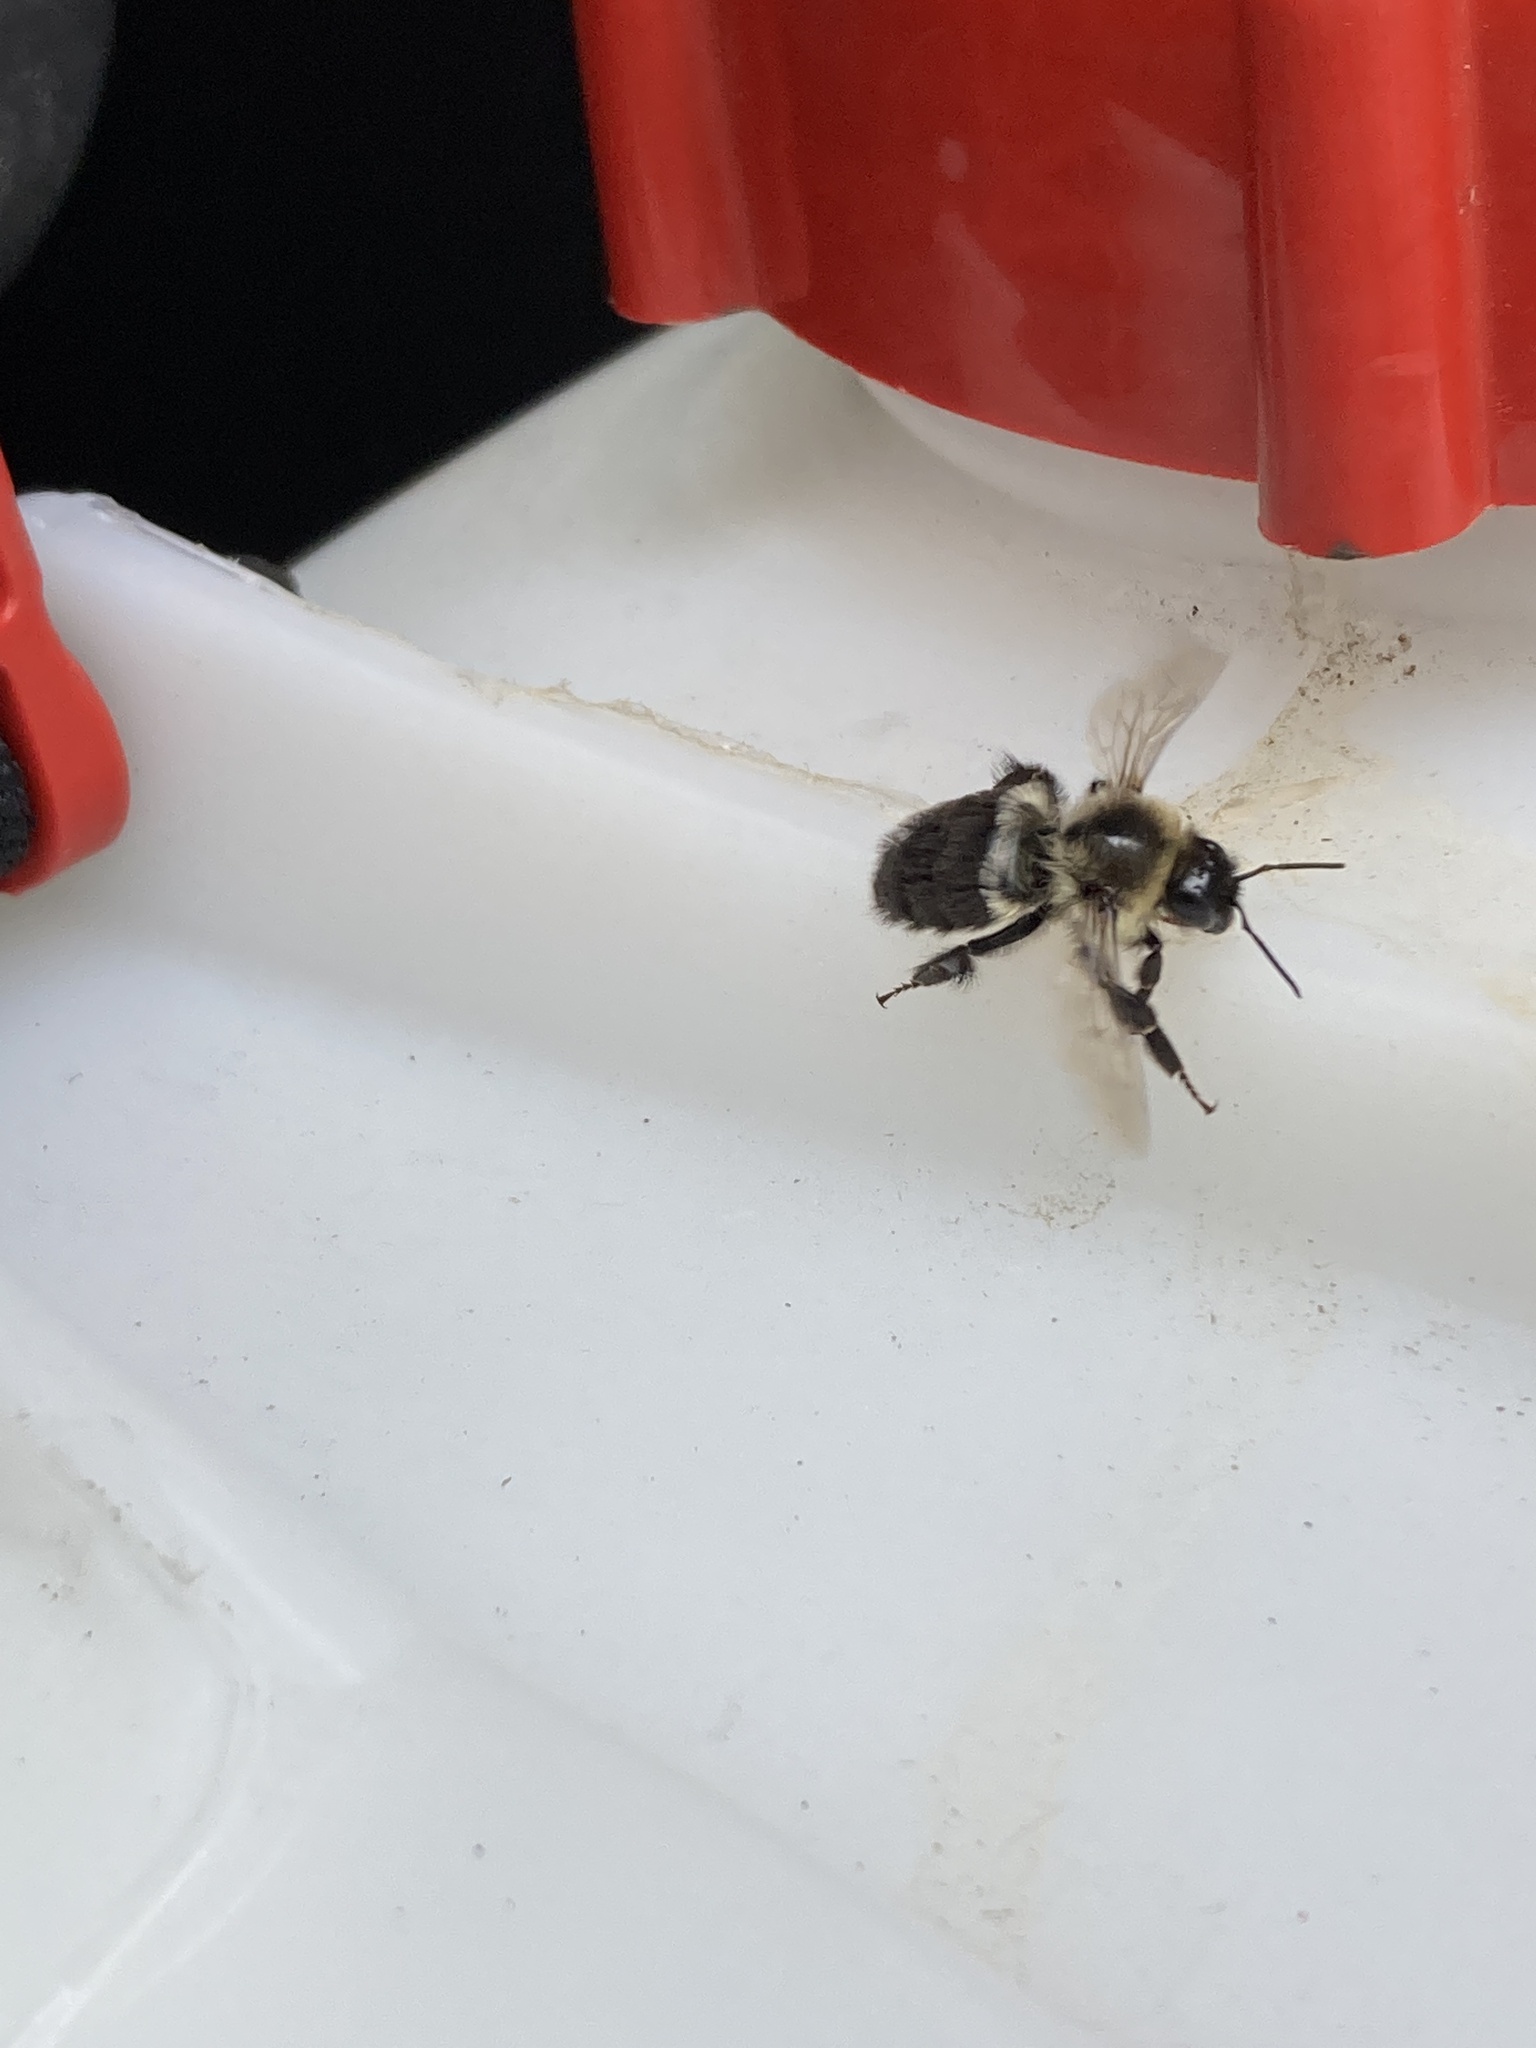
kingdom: Animalia
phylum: Arthropoda
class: Insecta
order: Hymenoptera
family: Apidae
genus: Bombus
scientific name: Bombus impatiens
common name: Common eastern bumble bee
